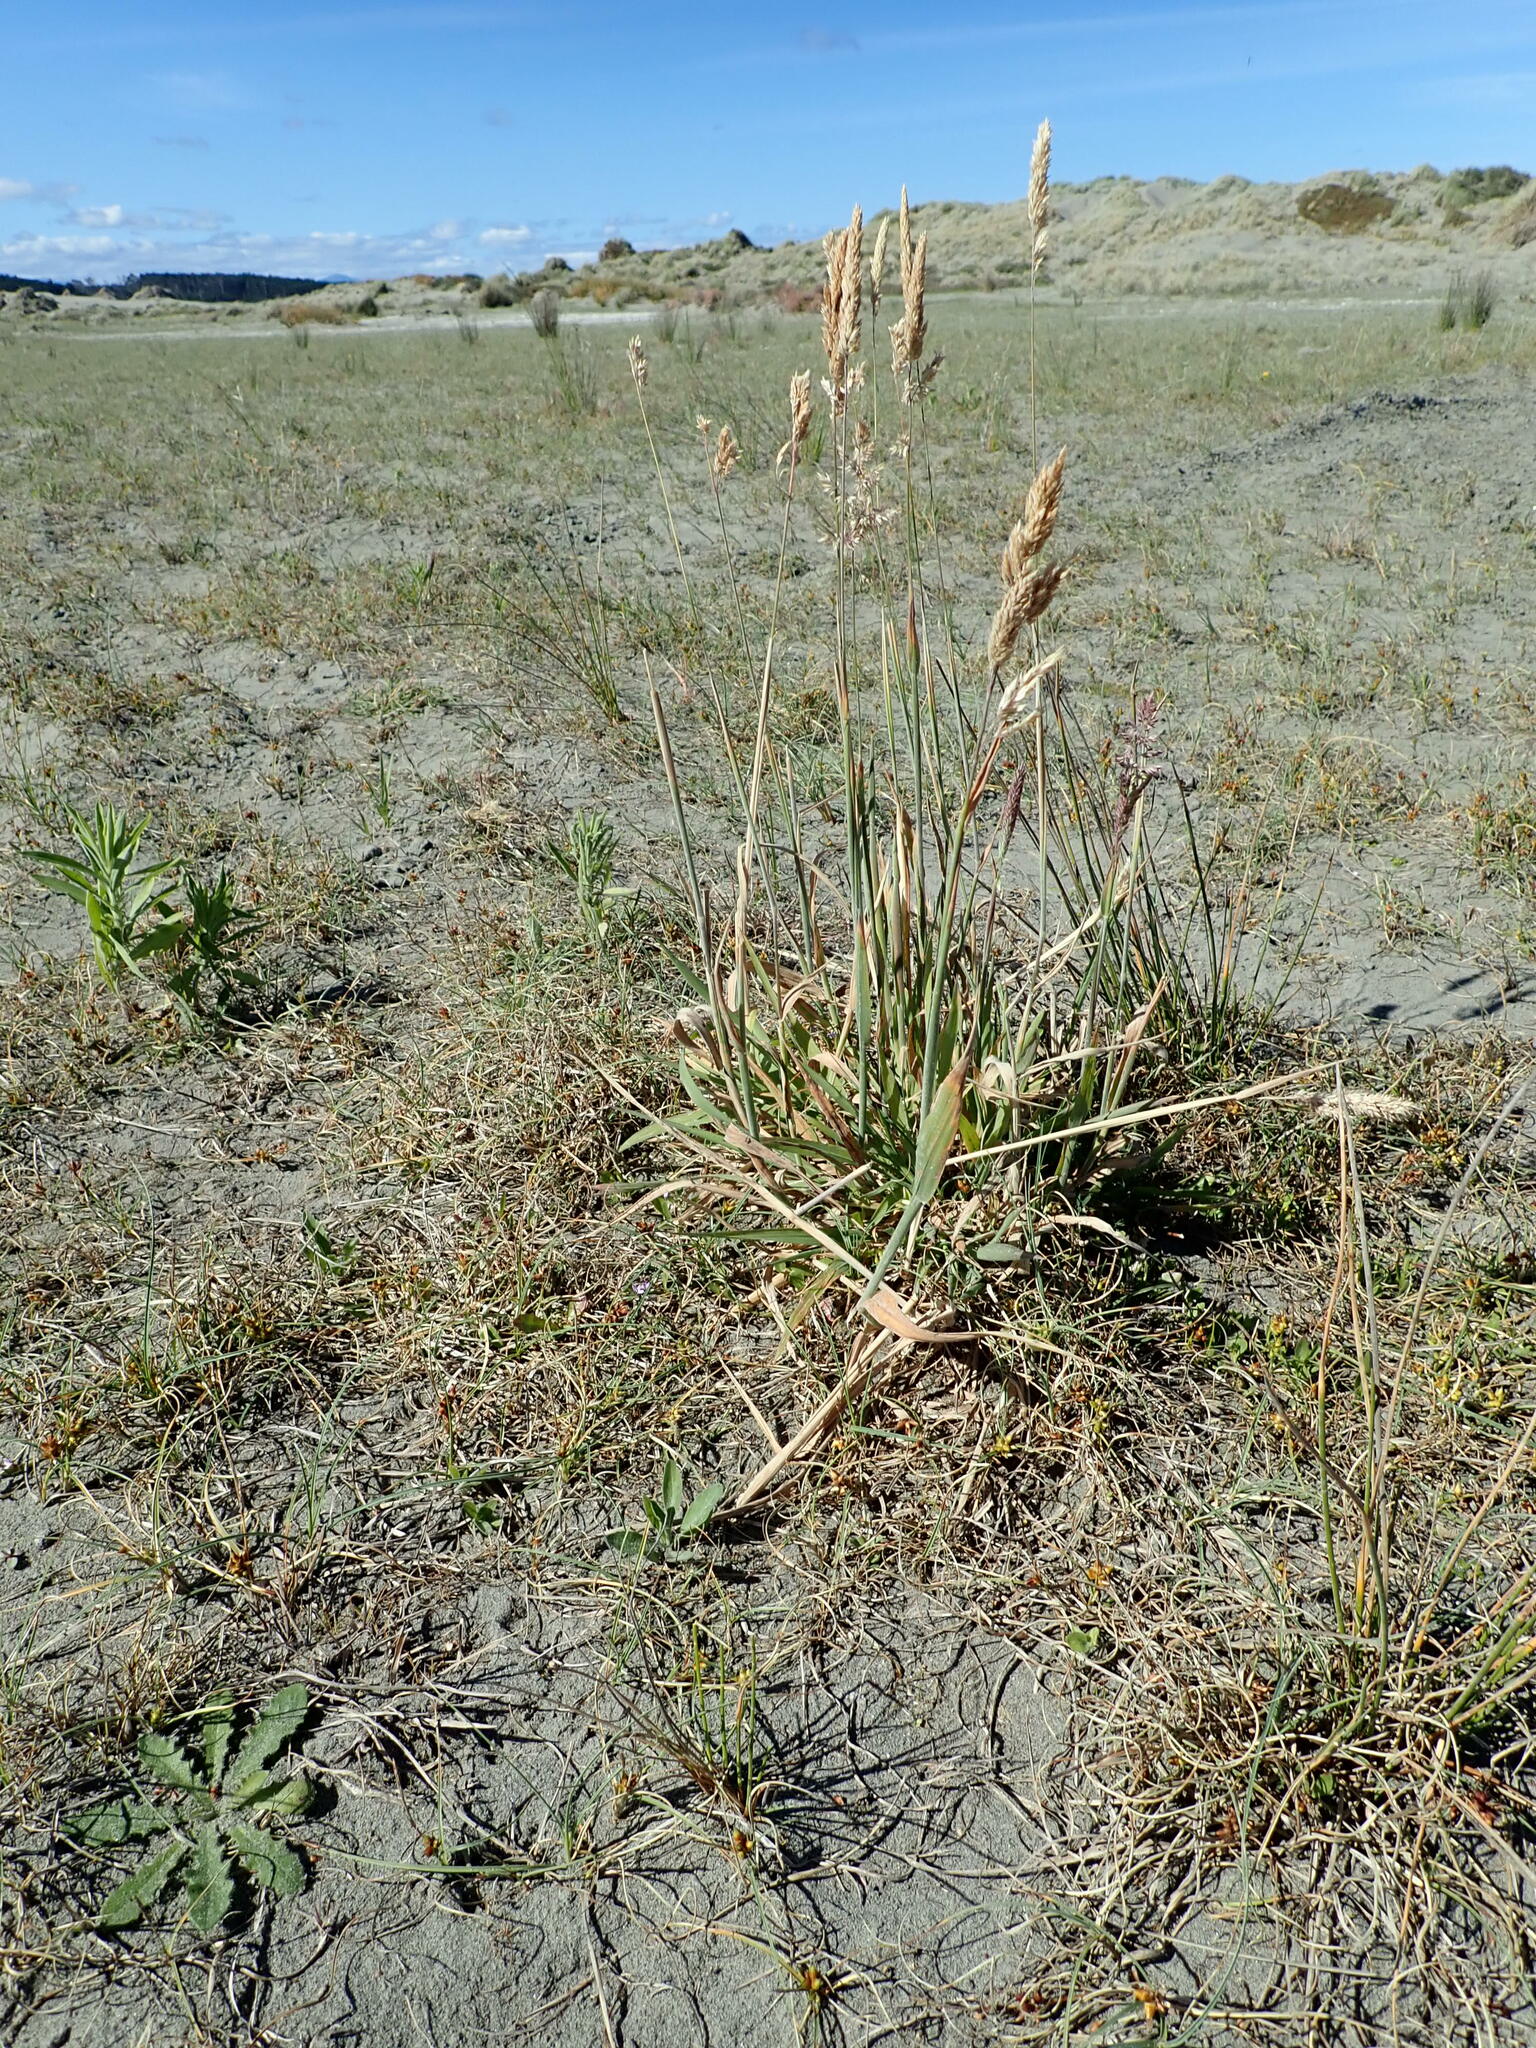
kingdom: Plantae
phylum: Tracheophyta
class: Liliopsida
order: Poales
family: Poaceae
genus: Holcus
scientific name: Holcus lanatus
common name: Yorkshire-fog
